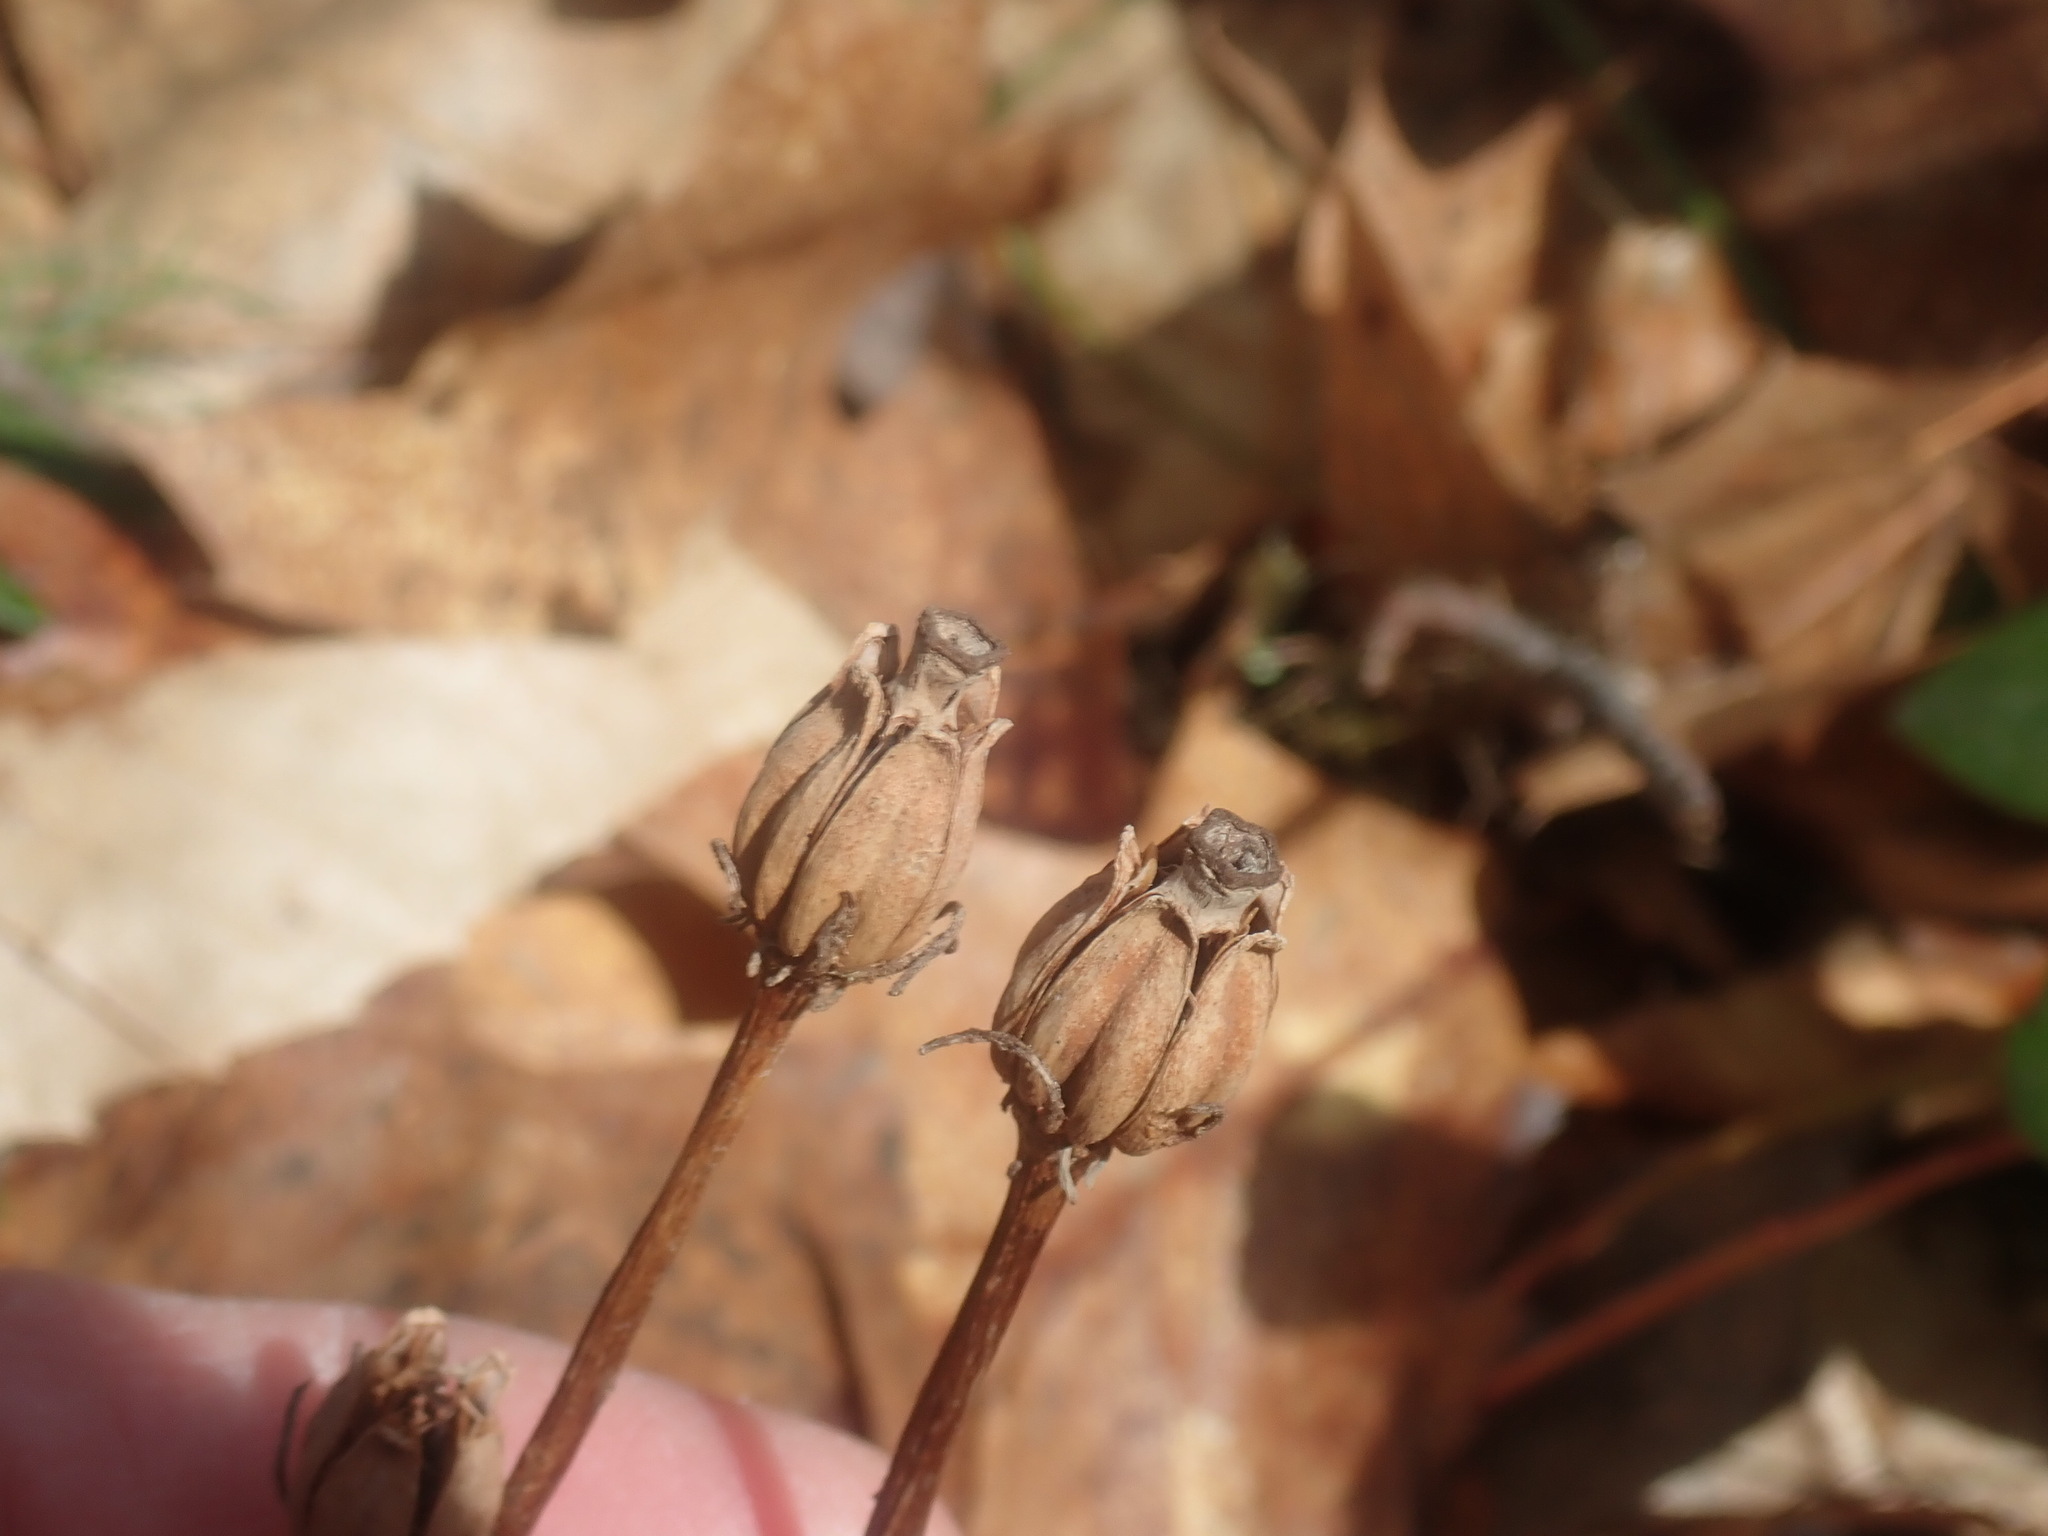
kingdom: Plantae
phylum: Tracheophyta
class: Magnoliopsida
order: Ericales
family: Ericaceae
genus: Monotropa
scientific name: Monotropa uniflora
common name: Convulsion root
